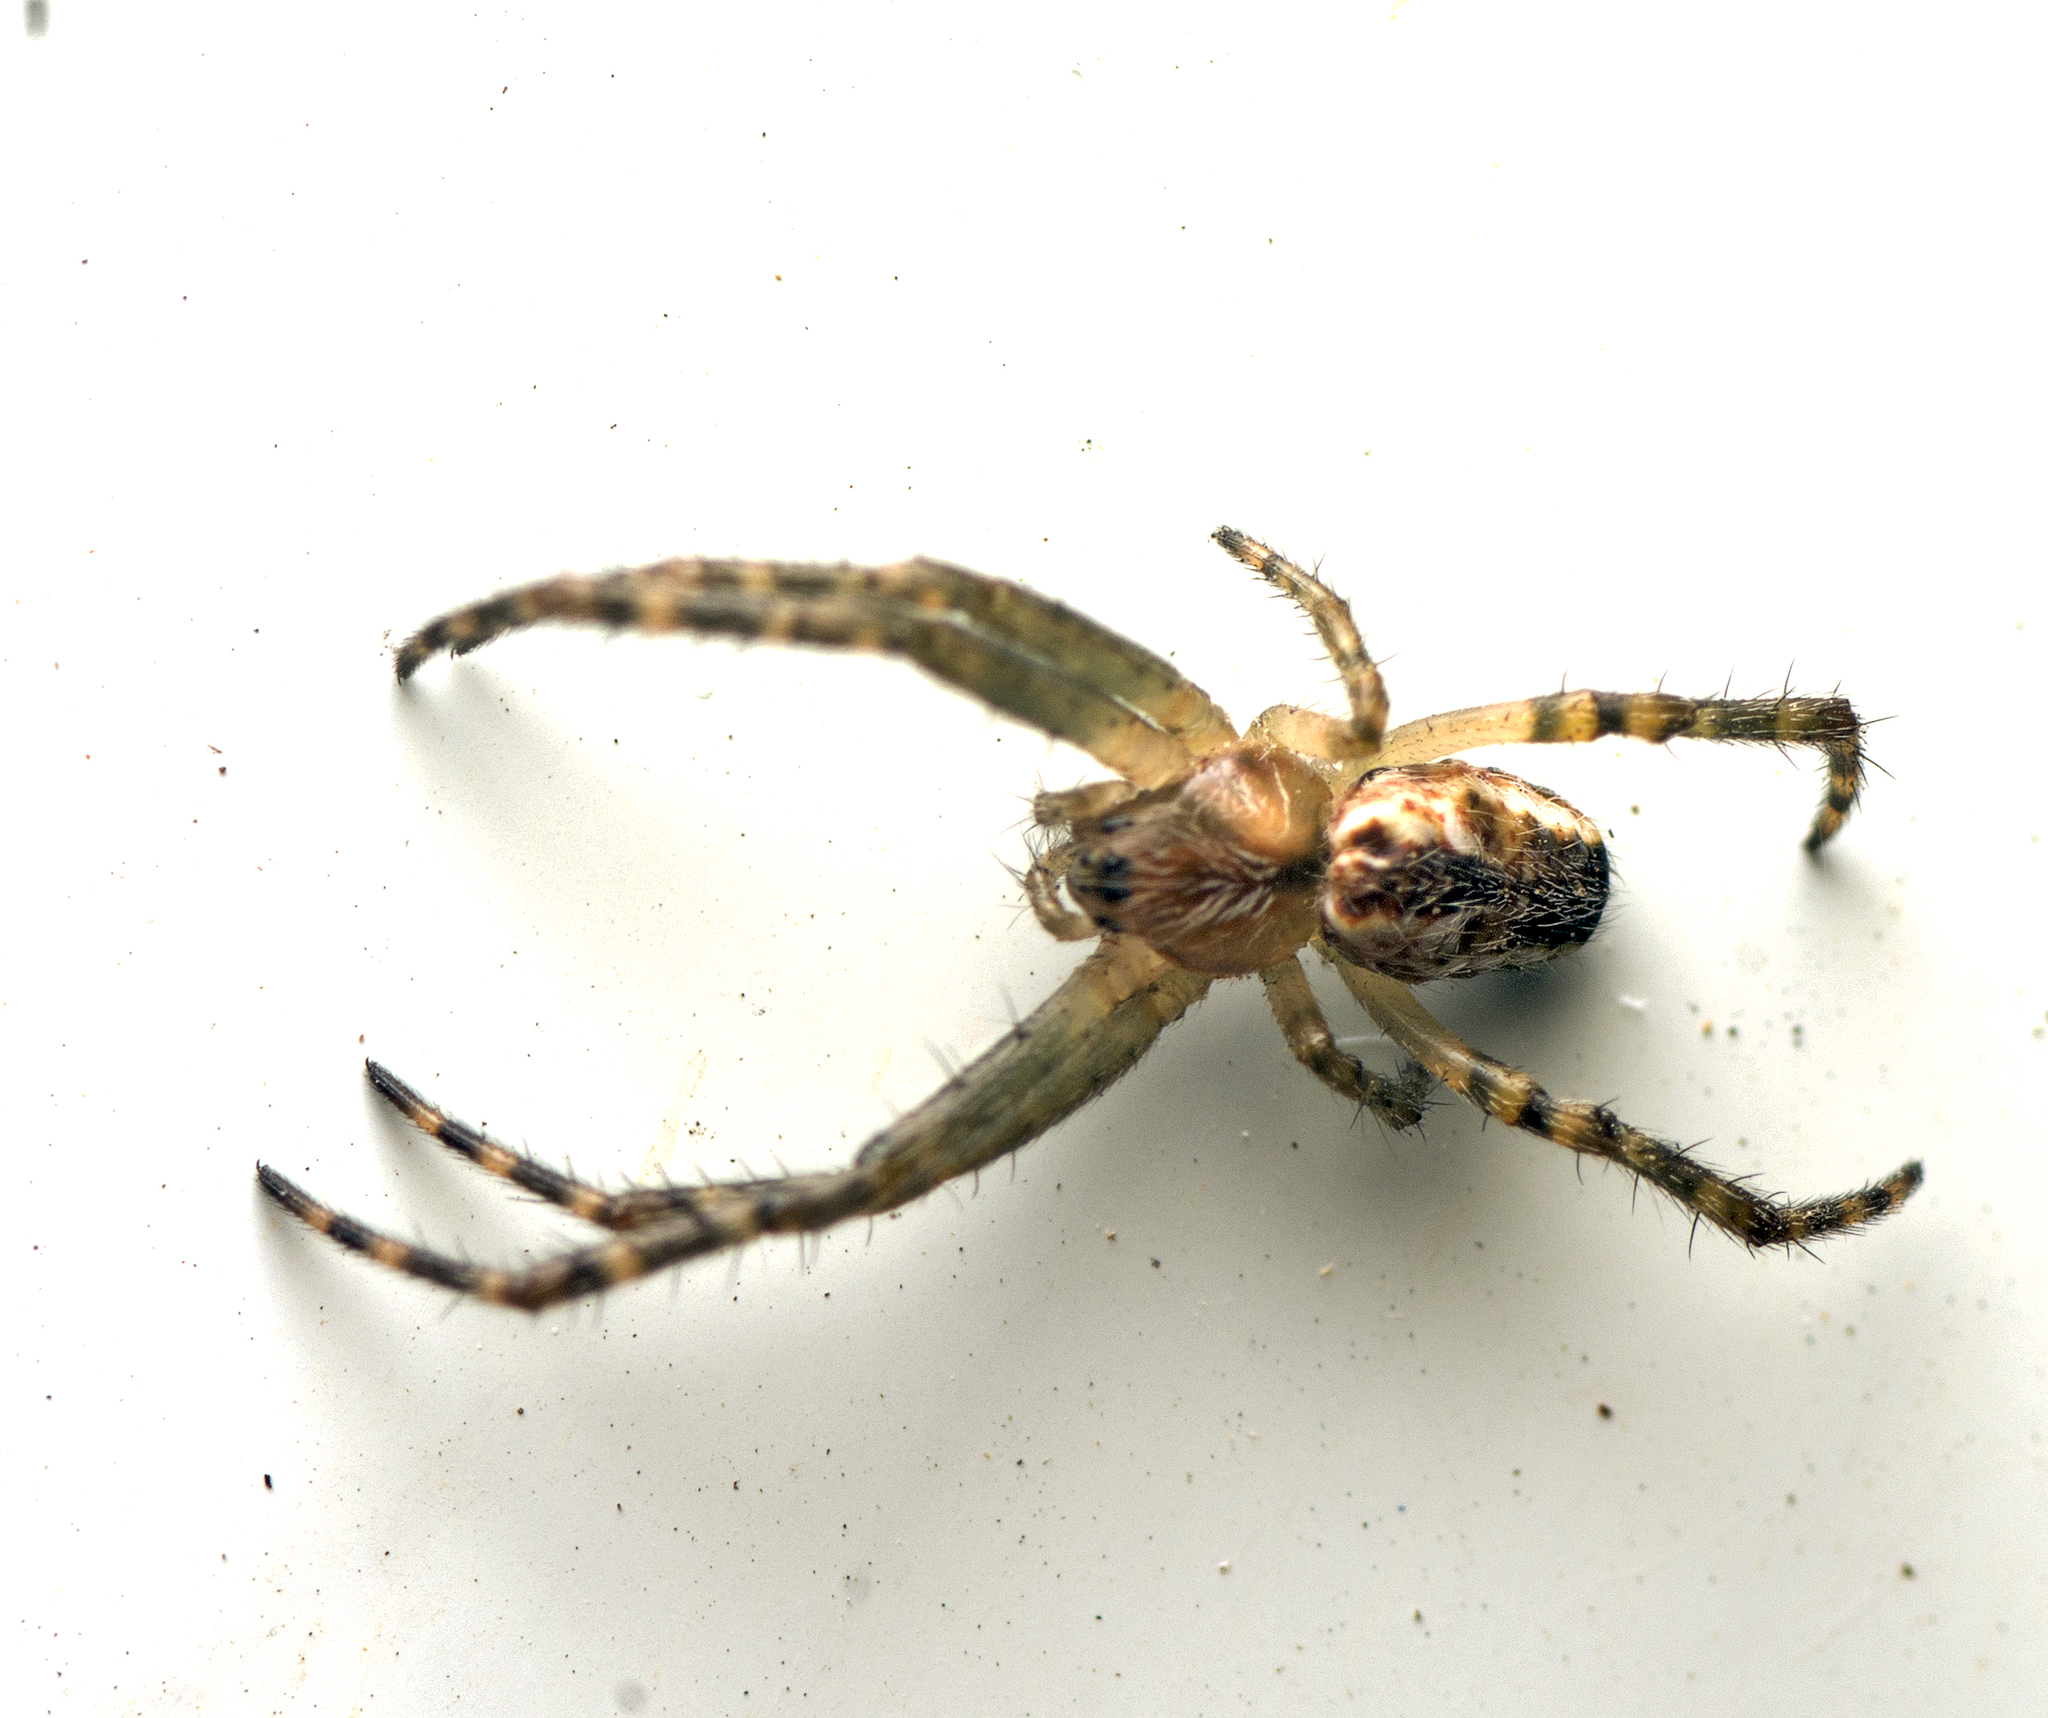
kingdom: Animalia
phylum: Arthropoda
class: Arachnida
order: Araneae
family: Araneidae
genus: Plebs
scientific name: Plebs eburnus
